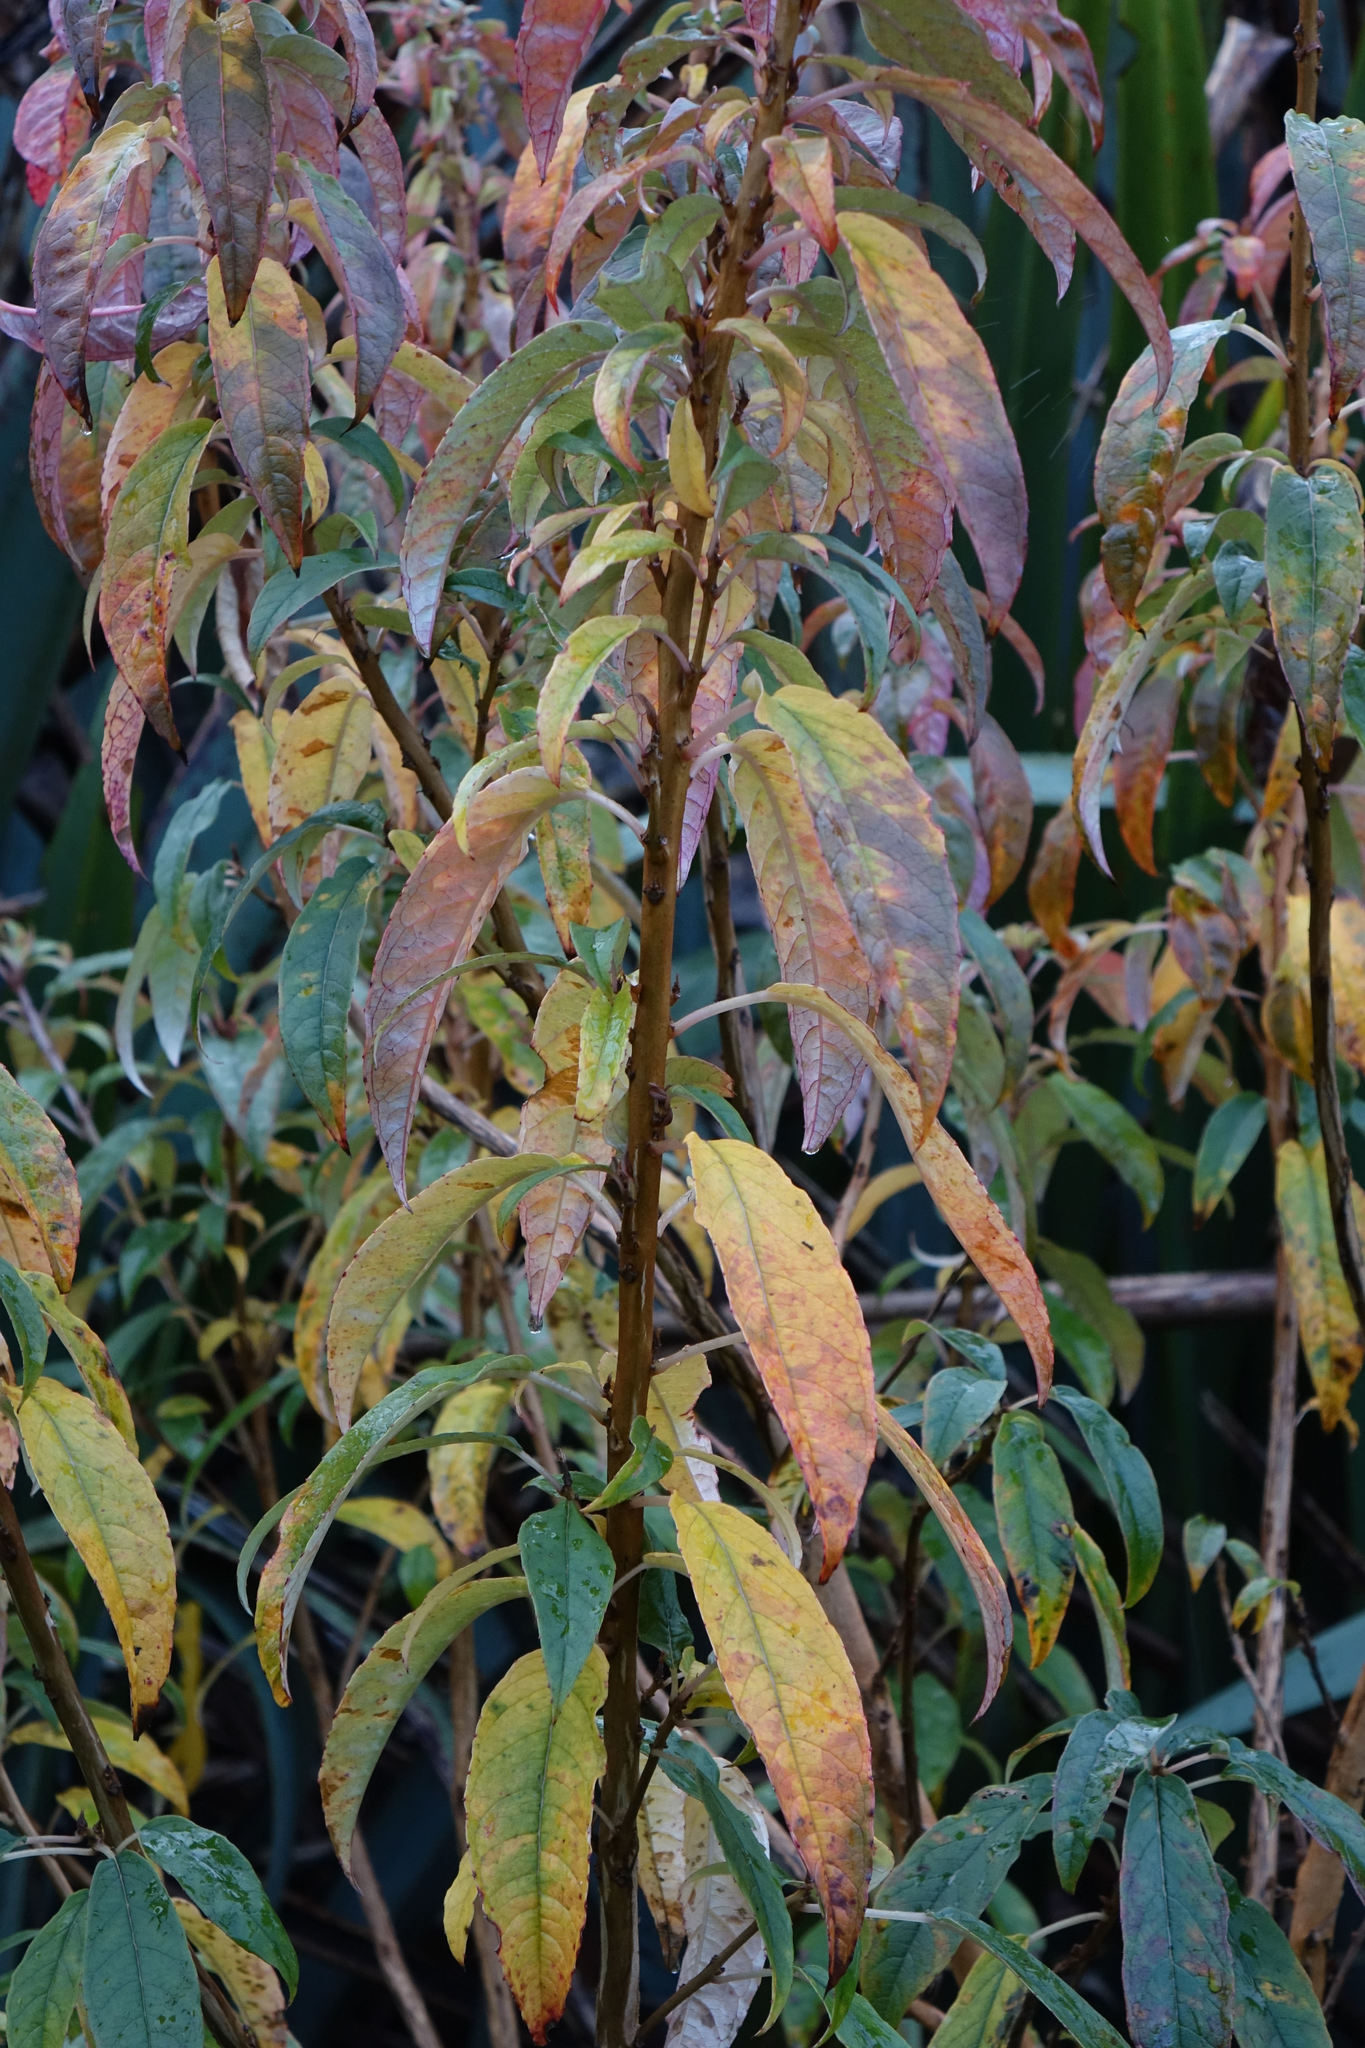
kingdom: Plantae
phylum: Tracheophyta
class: Magnoliopsida
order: Myrtales
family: Onagraceae
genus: Fuchsia
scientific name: Fuchsia excorticata
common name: Tree fuchsia
